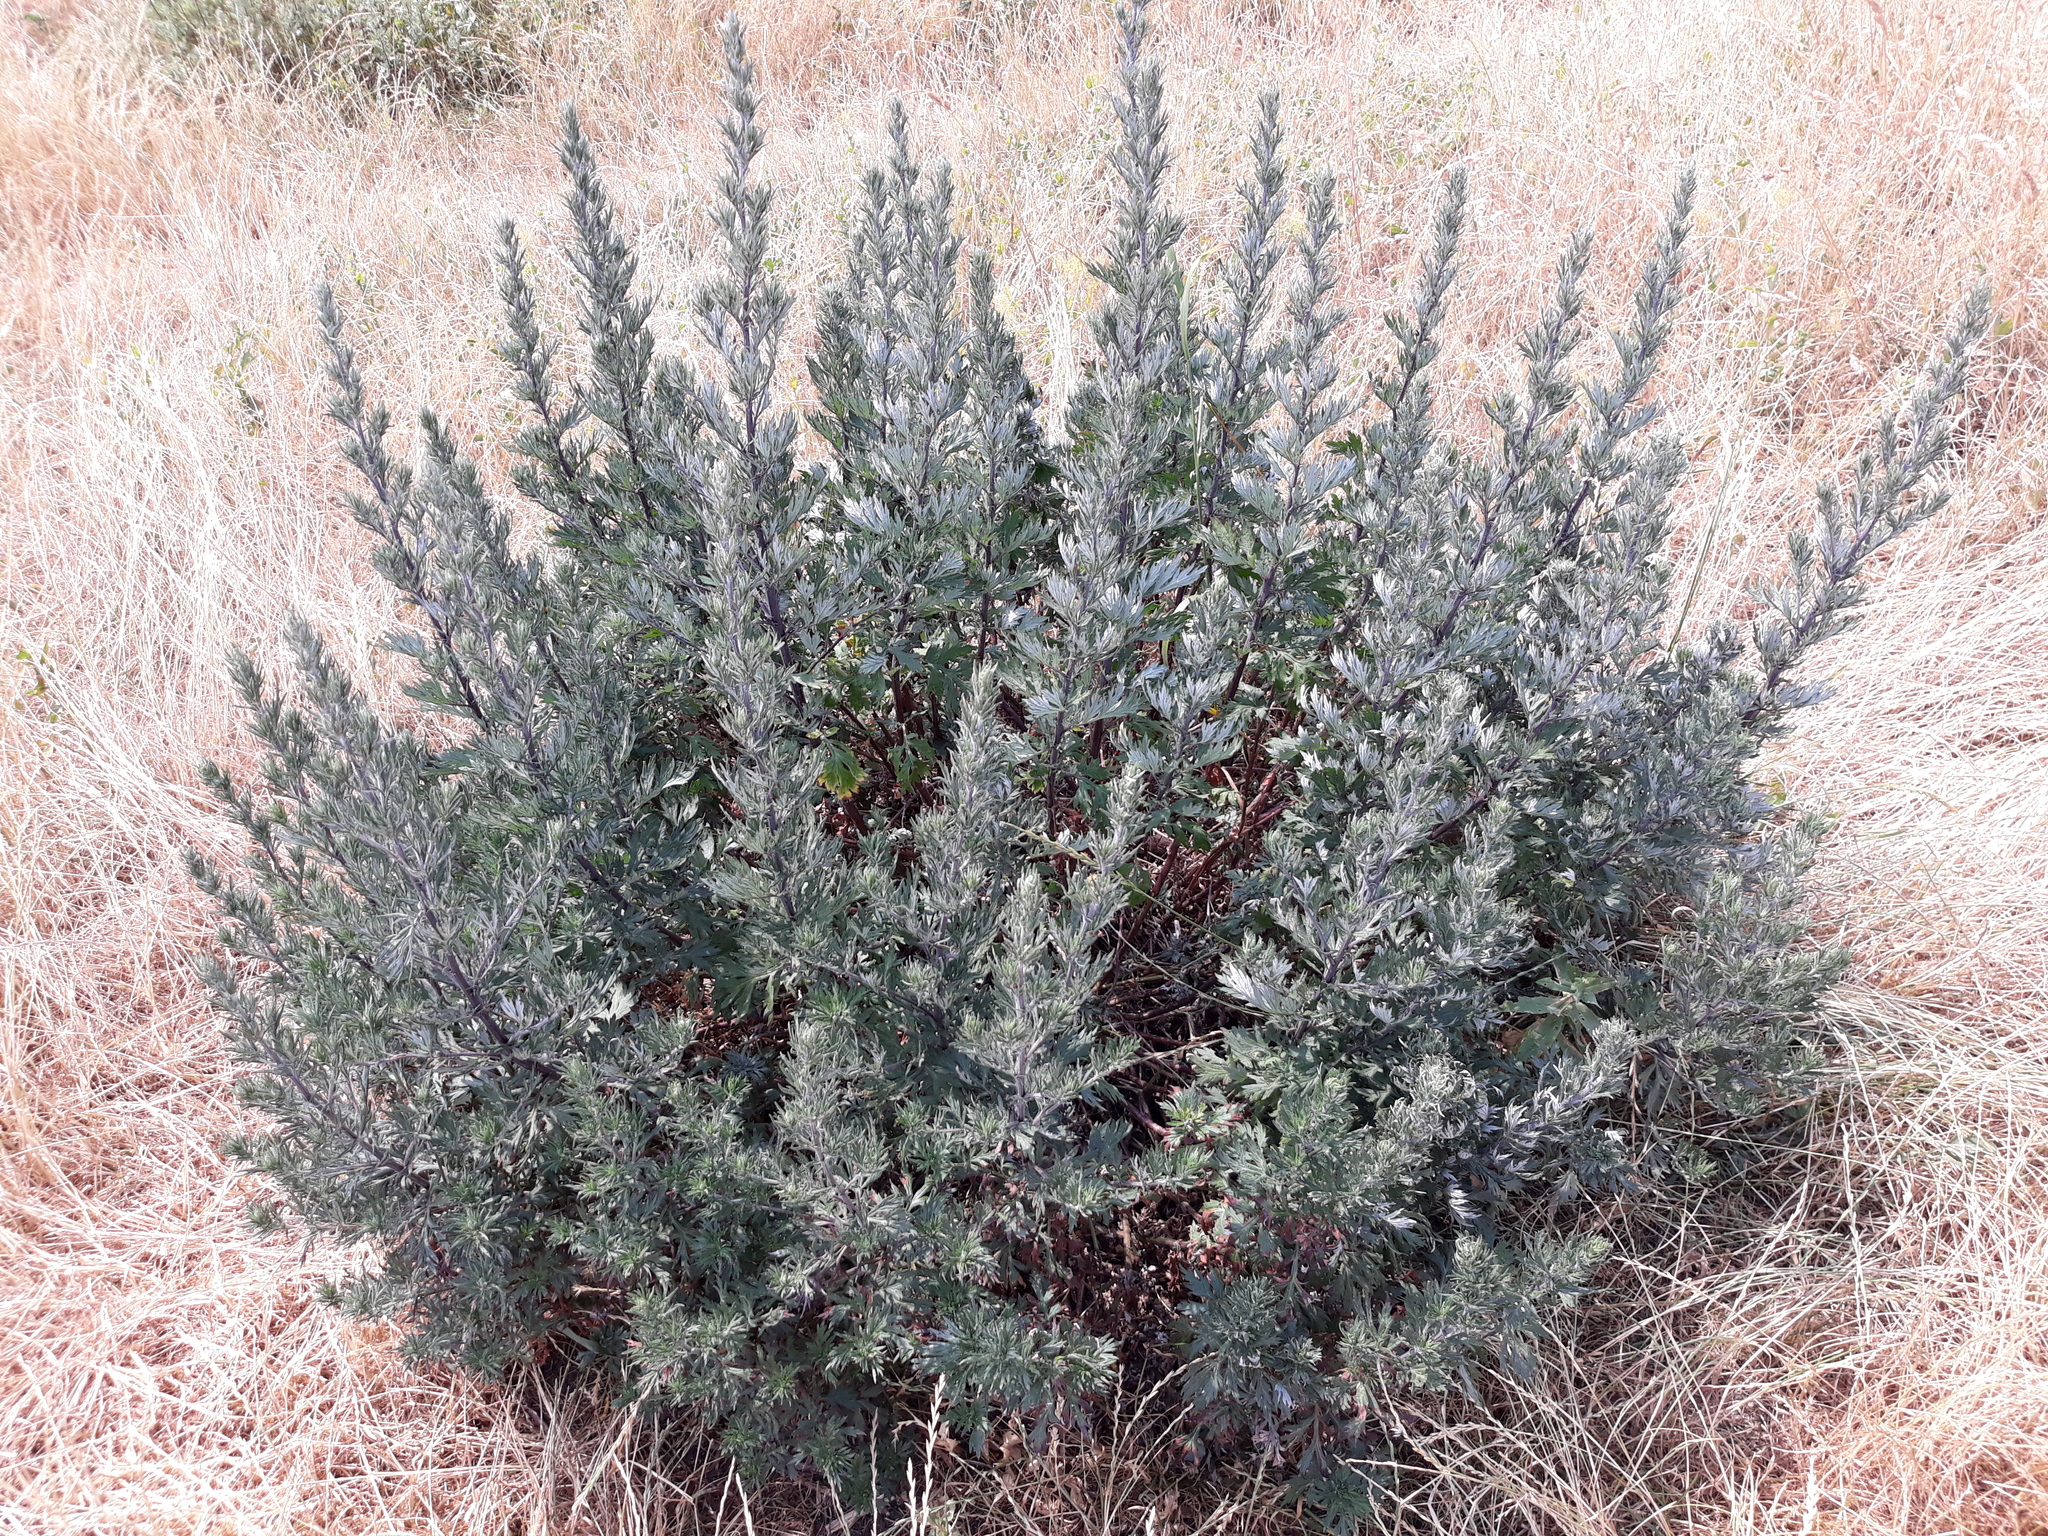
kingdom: Plantae
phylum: Tracheophyta
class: Magnoliopsida
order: Asterales
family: Asteraceae
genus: Artemisia
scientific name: Artemisia vulgaris
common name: Mugwort
